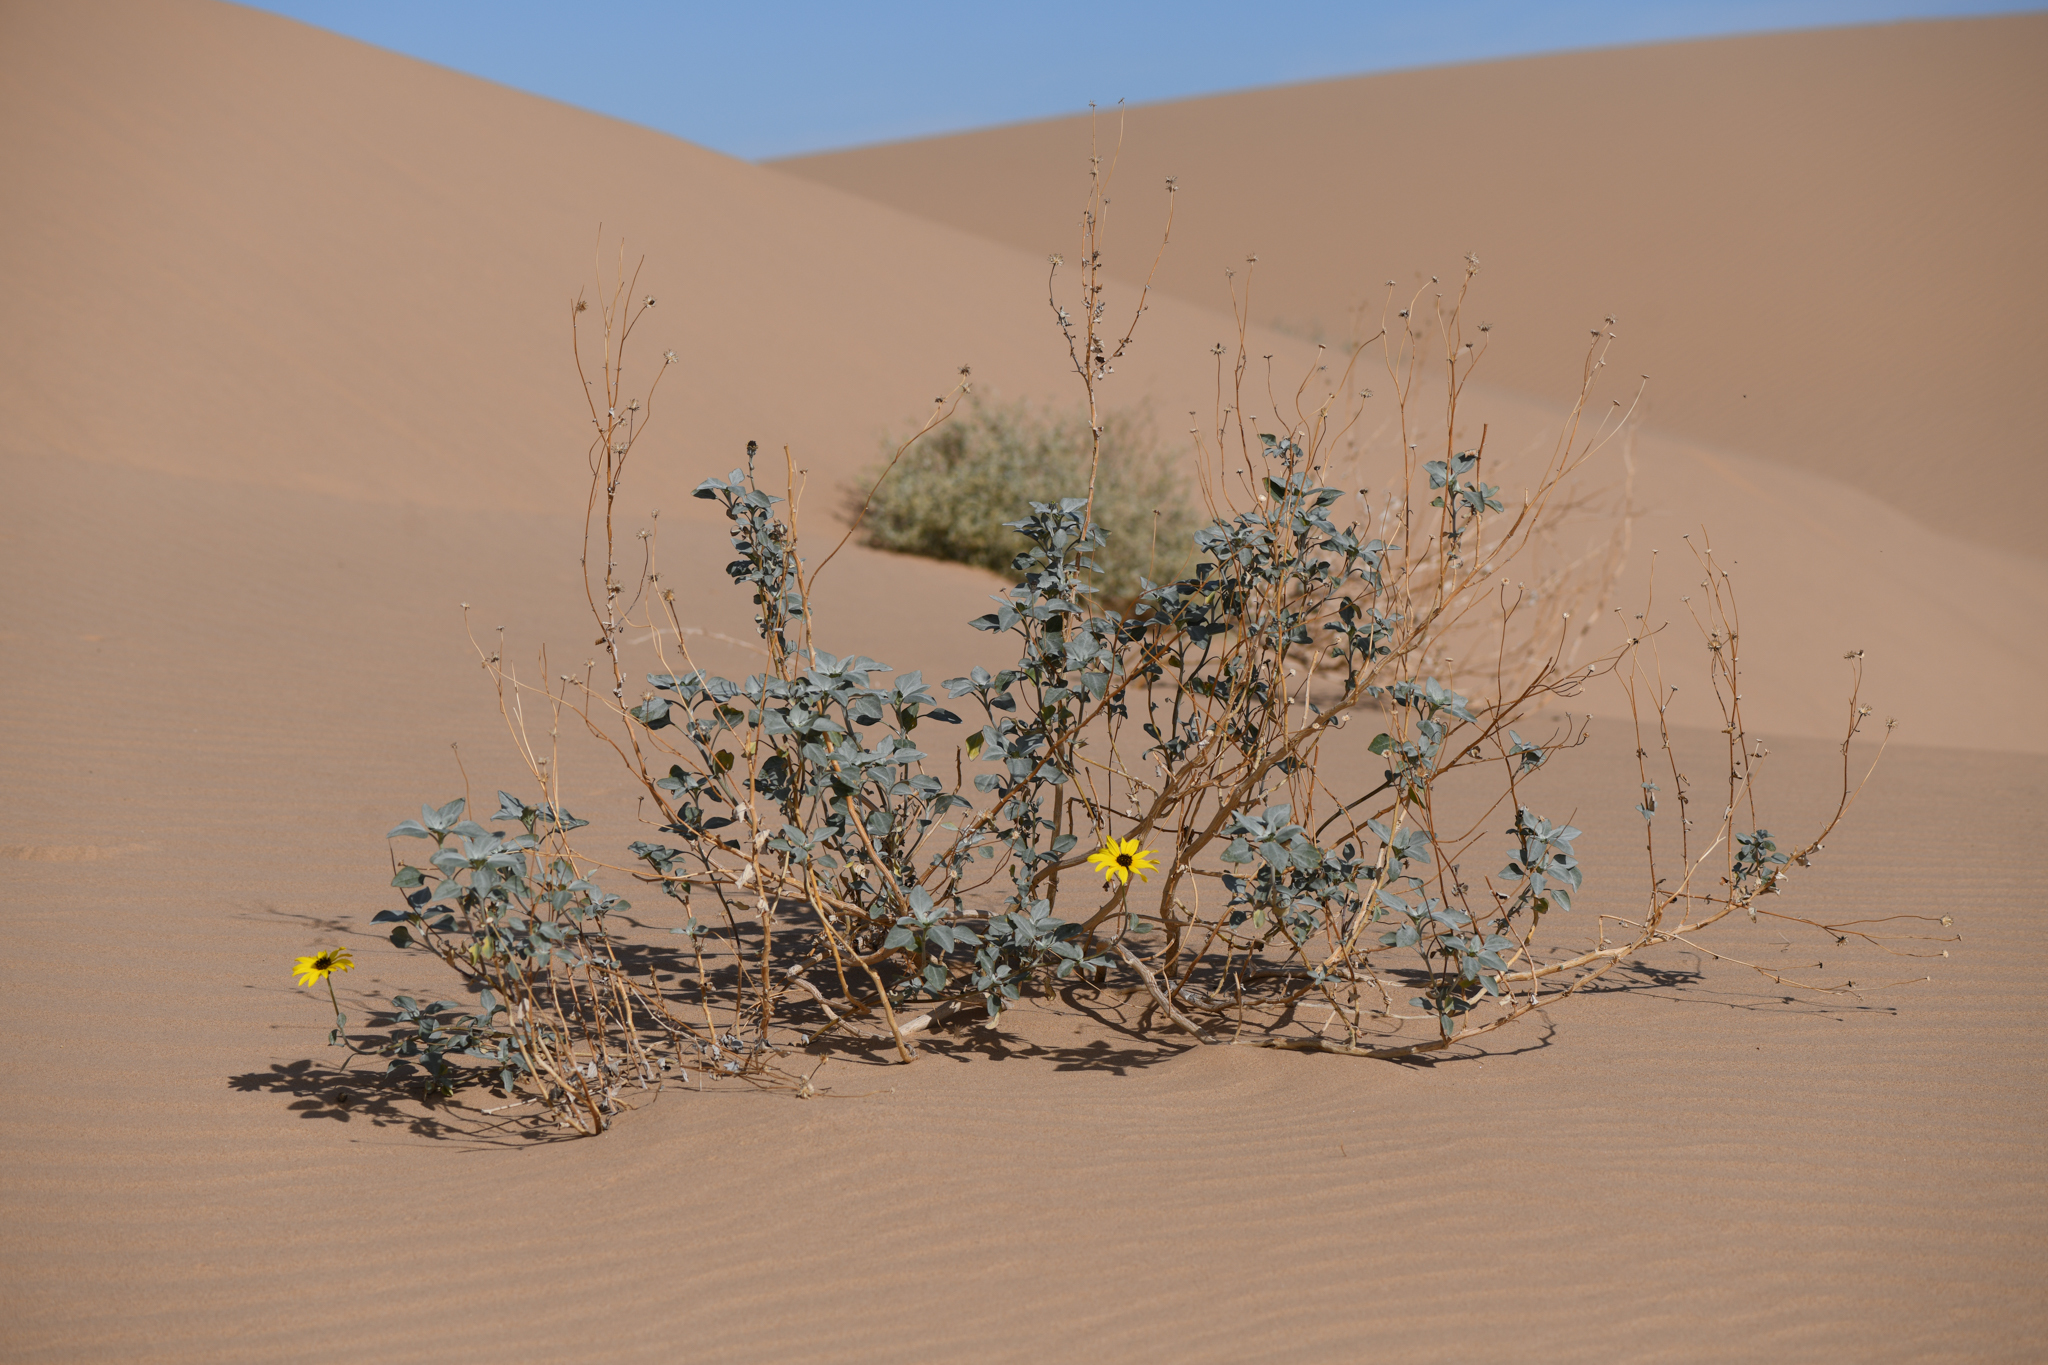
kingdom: Plantae
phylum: Tracheophyta
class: Magnoliopsida
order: Asterales
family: Asteraceae
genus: Helianthus
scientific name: Helianthus niveus
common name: Snowy sunflower
